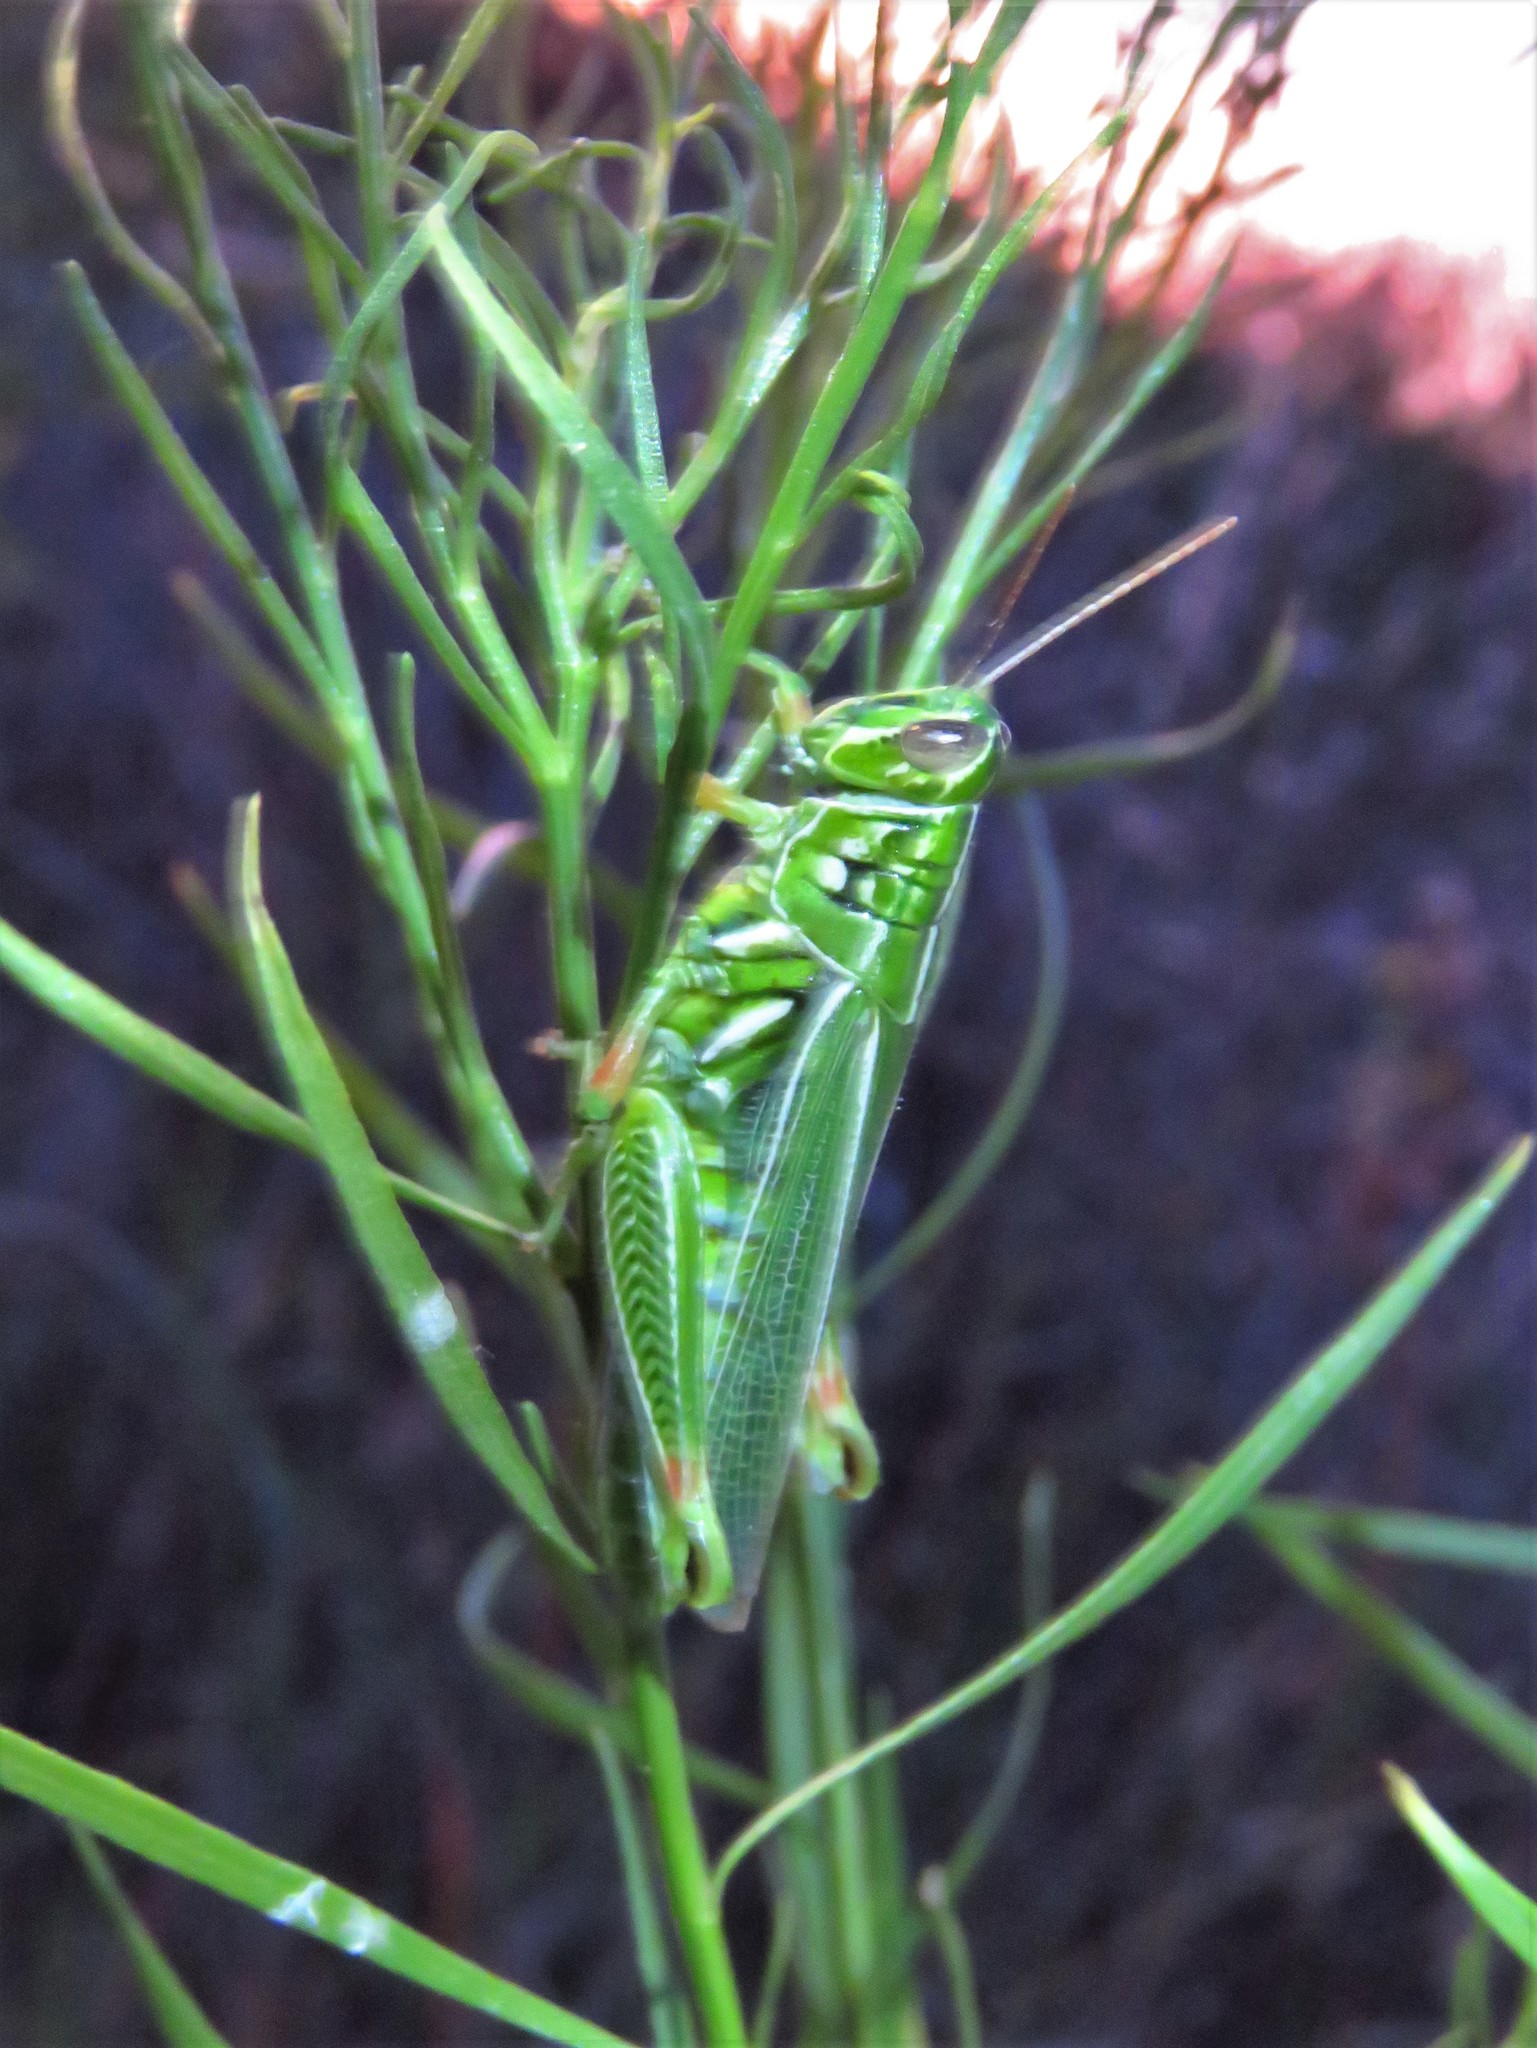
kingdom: Animalia
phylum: Arthropoda
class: Insecta
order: Orthoptera
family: Acrididae
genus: Hesperotettix
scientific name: Hesperotettix viridis
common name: Meadow purple-striped grasshopper
